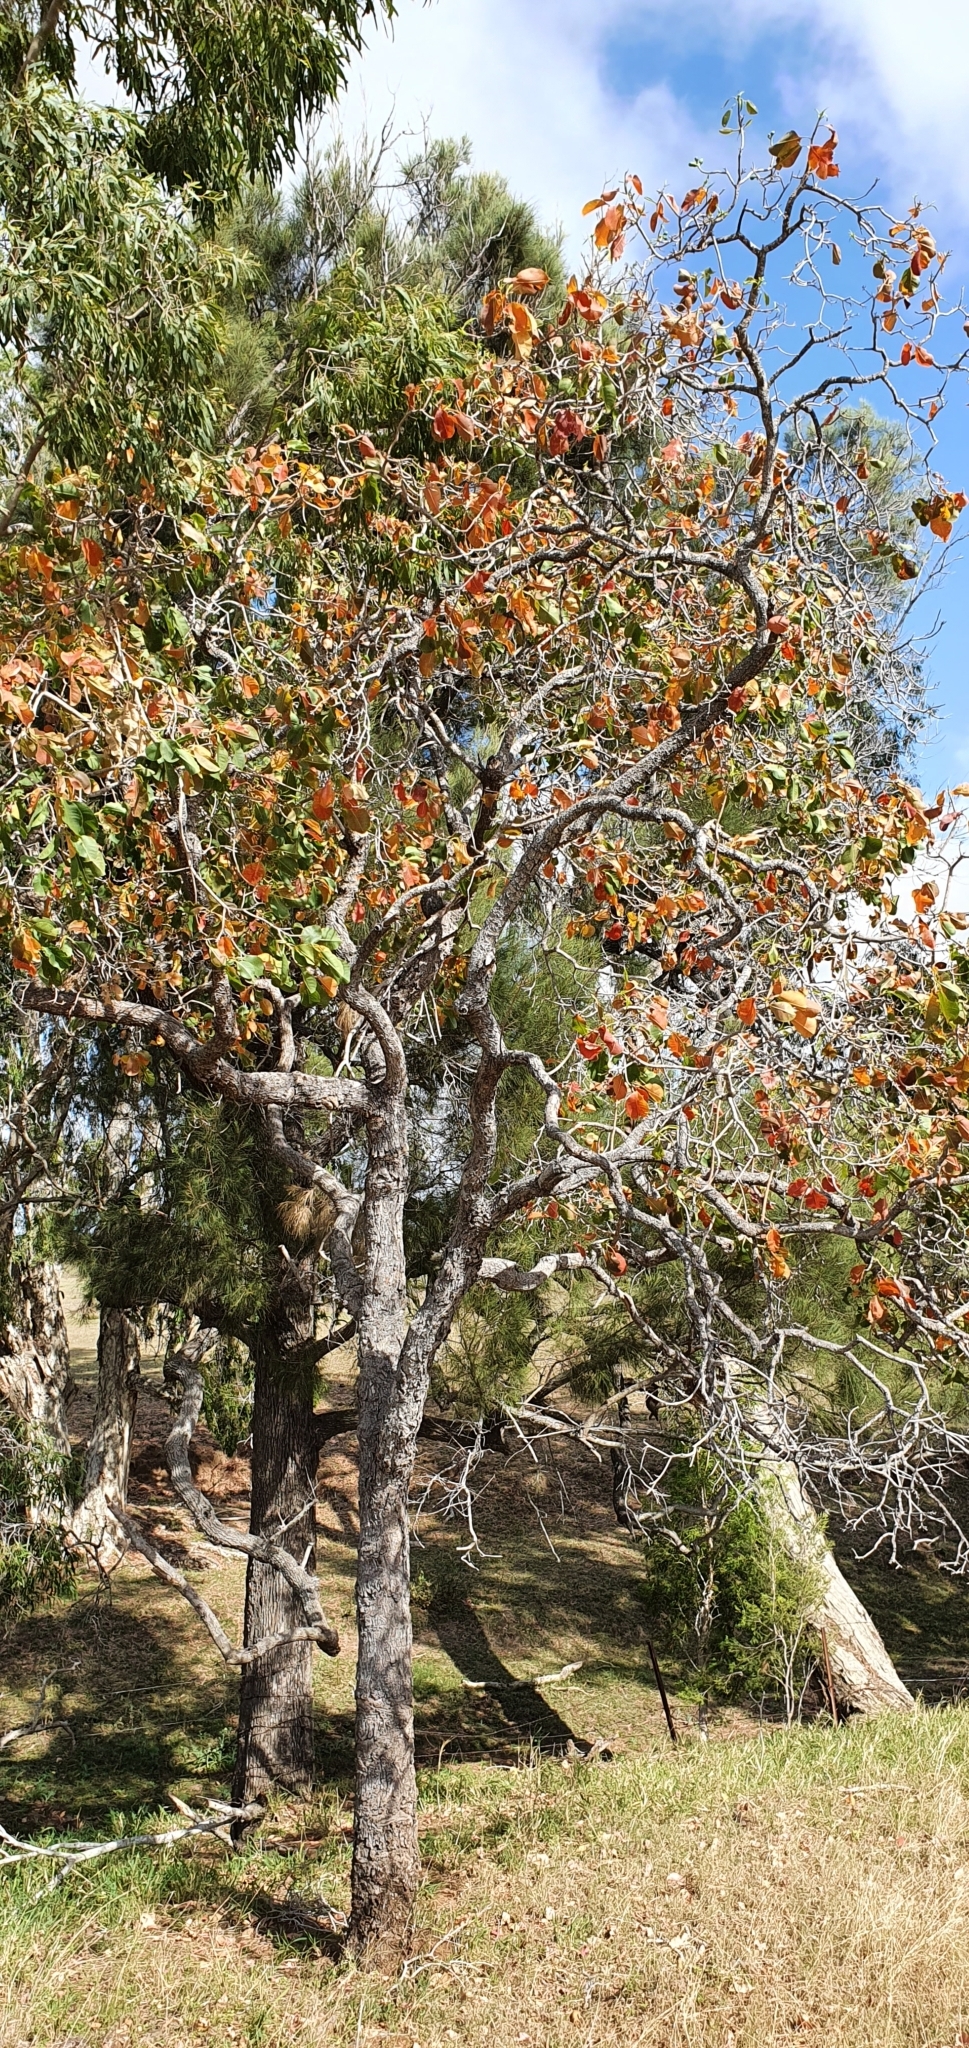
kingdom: Plantae
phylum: Tracheophyta
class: Magnoliopsida
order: Ericales
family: Lecythidaceae
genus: Planchonia
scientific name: Planchonia careya
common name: Cockatoo-apple
